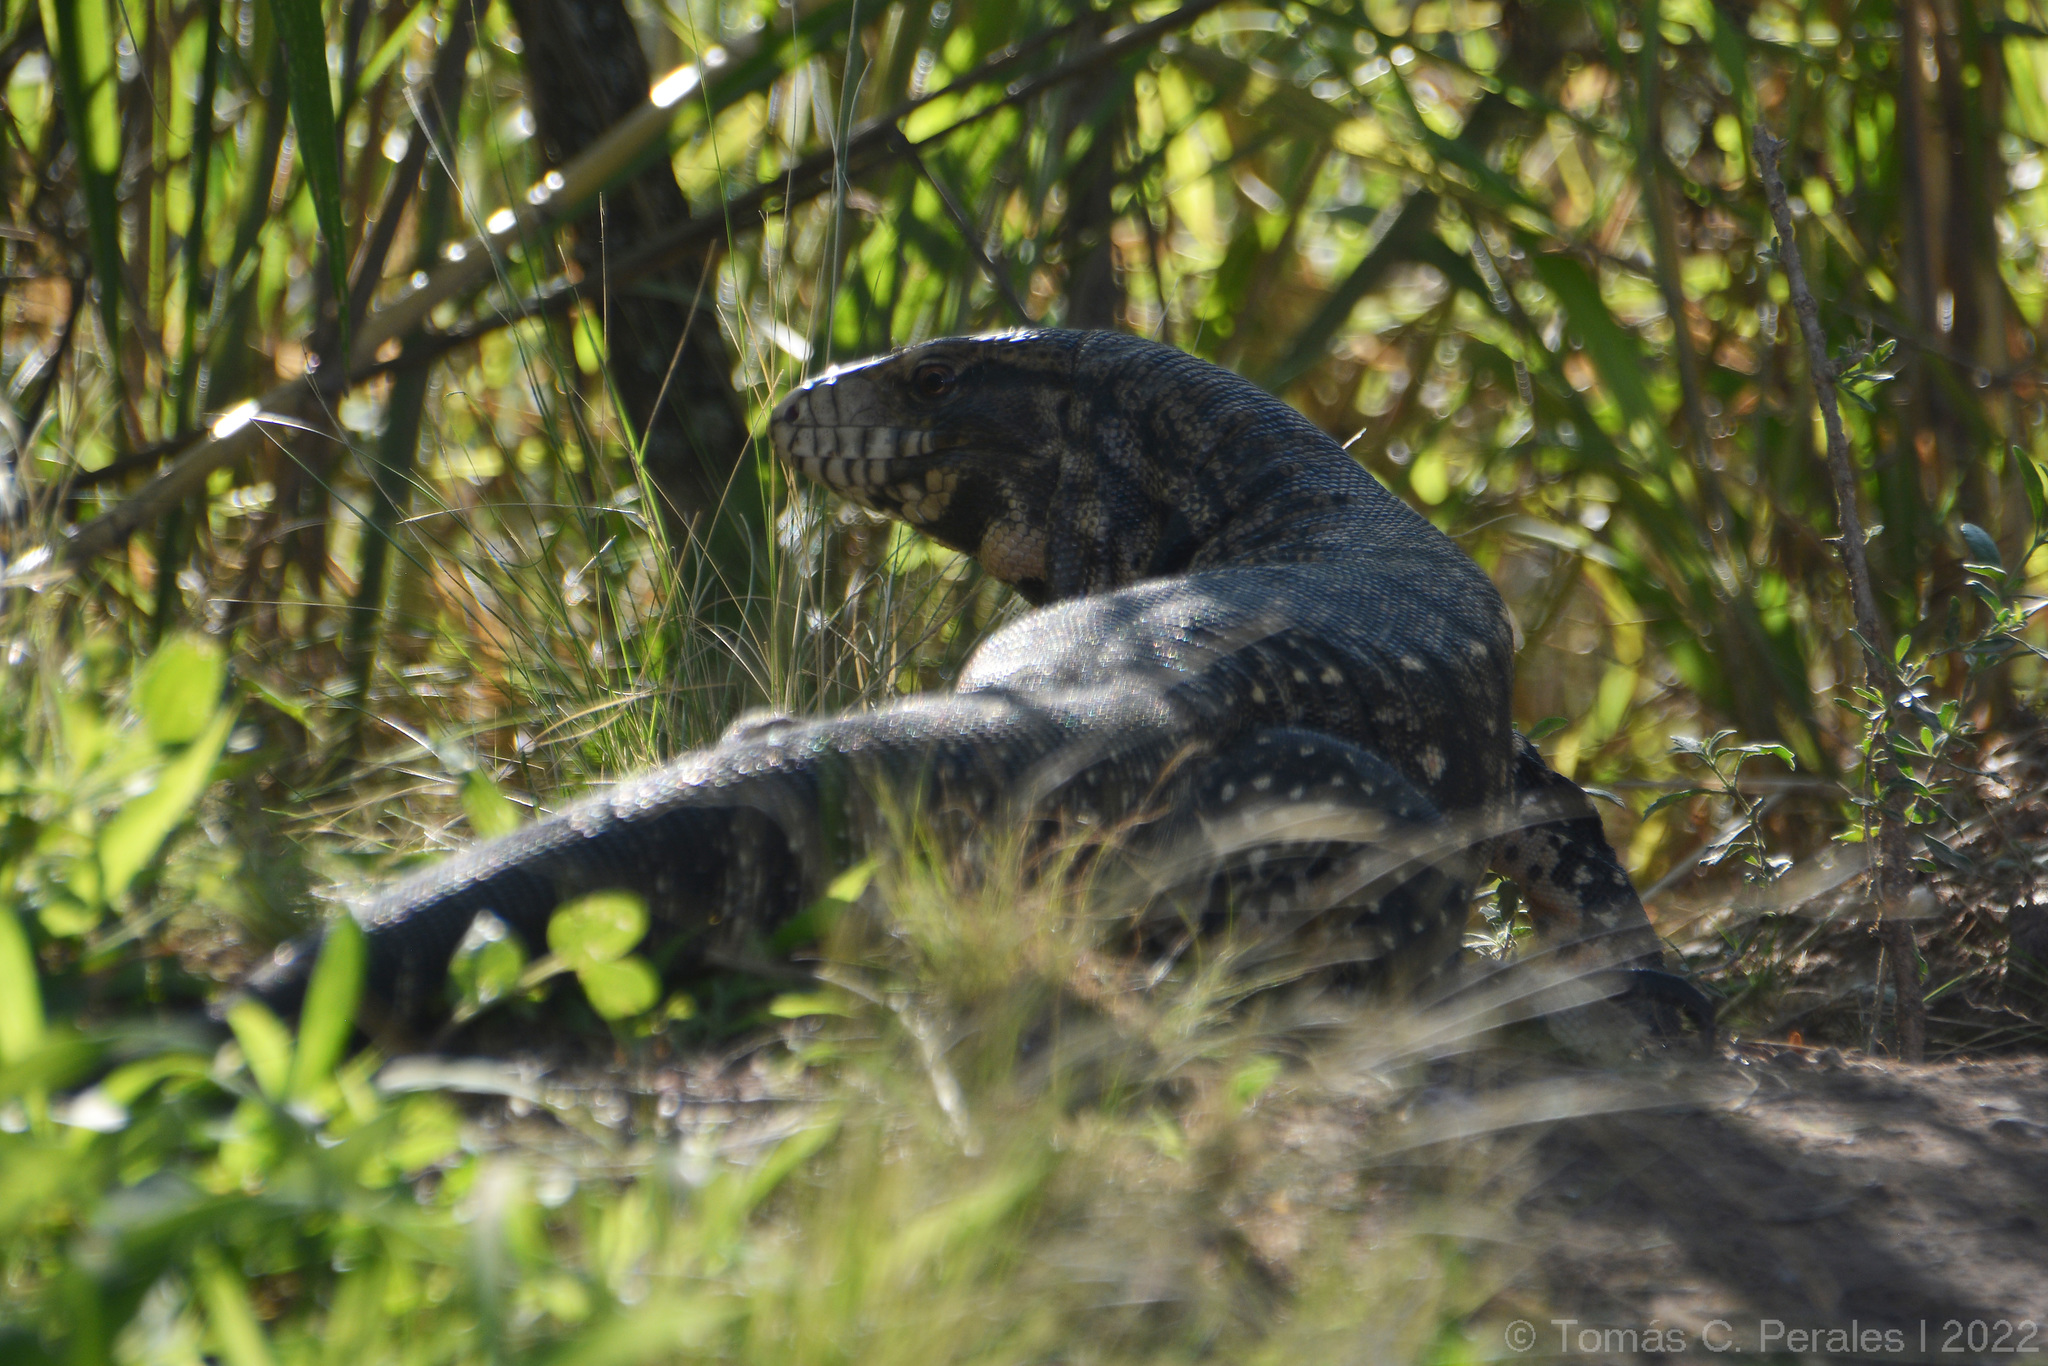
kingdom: Animalia
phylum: Chordata
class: Squamata
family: Teiidae
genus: Salvator
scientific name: Salvator merianae
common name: Argentine black and white tegu
